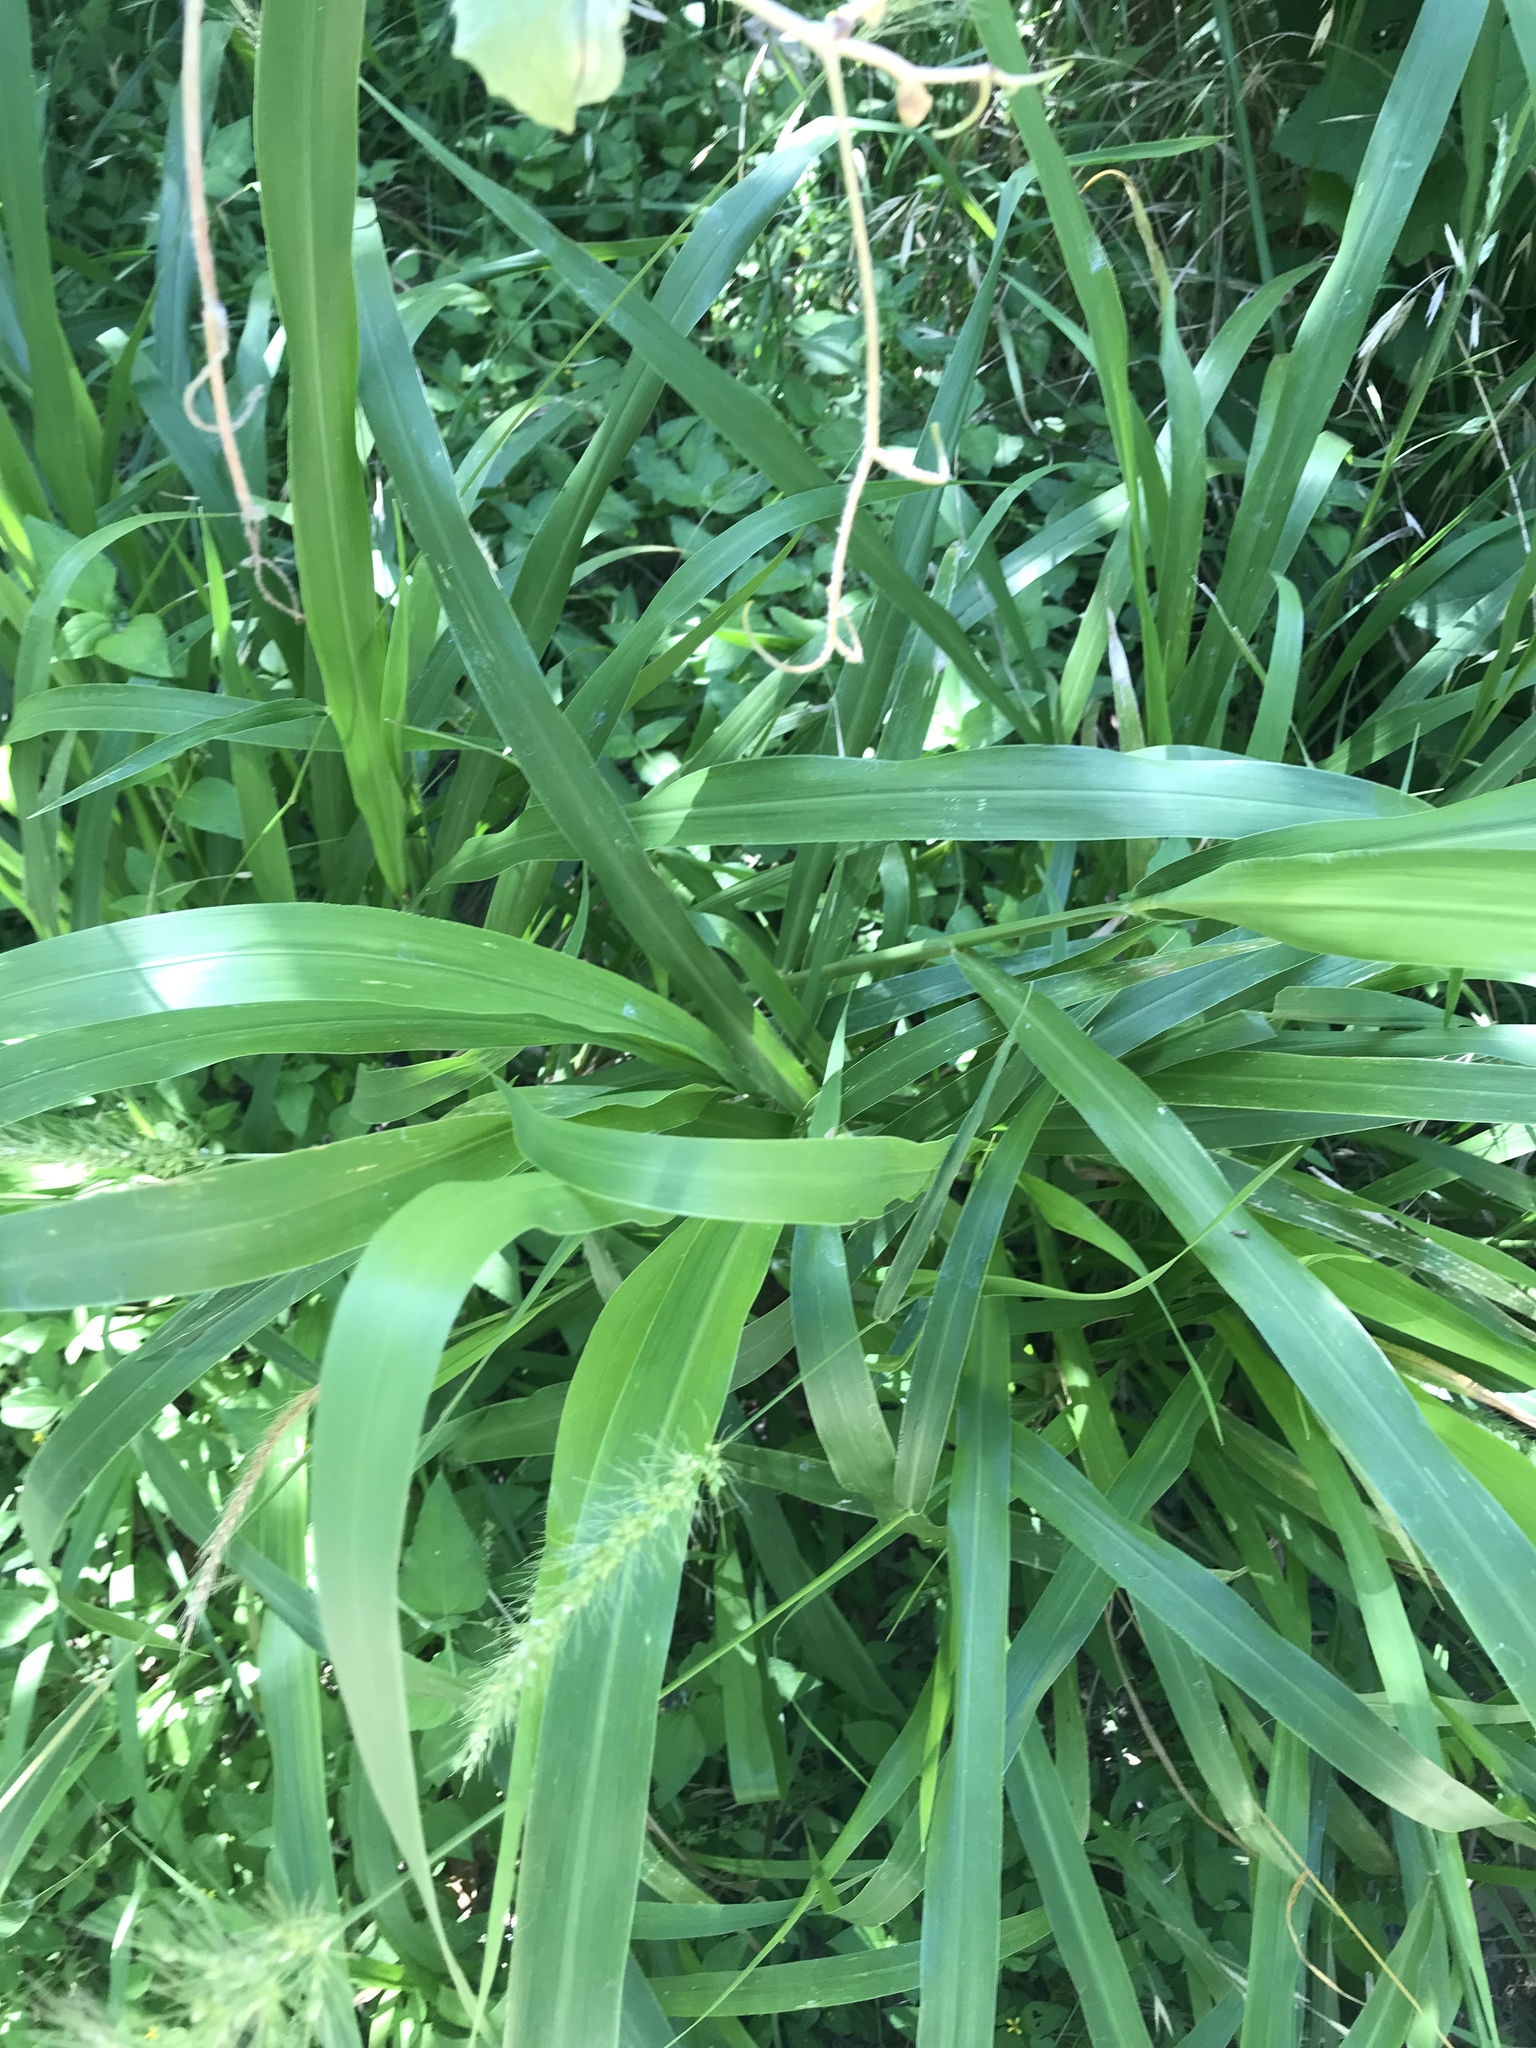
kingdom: Plantae
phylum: Tracheophyta
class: Liliopsida
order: Poales
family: Poaceae
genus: Setaria
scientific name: Setaria scheelei
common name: Southwestern bristle grass
